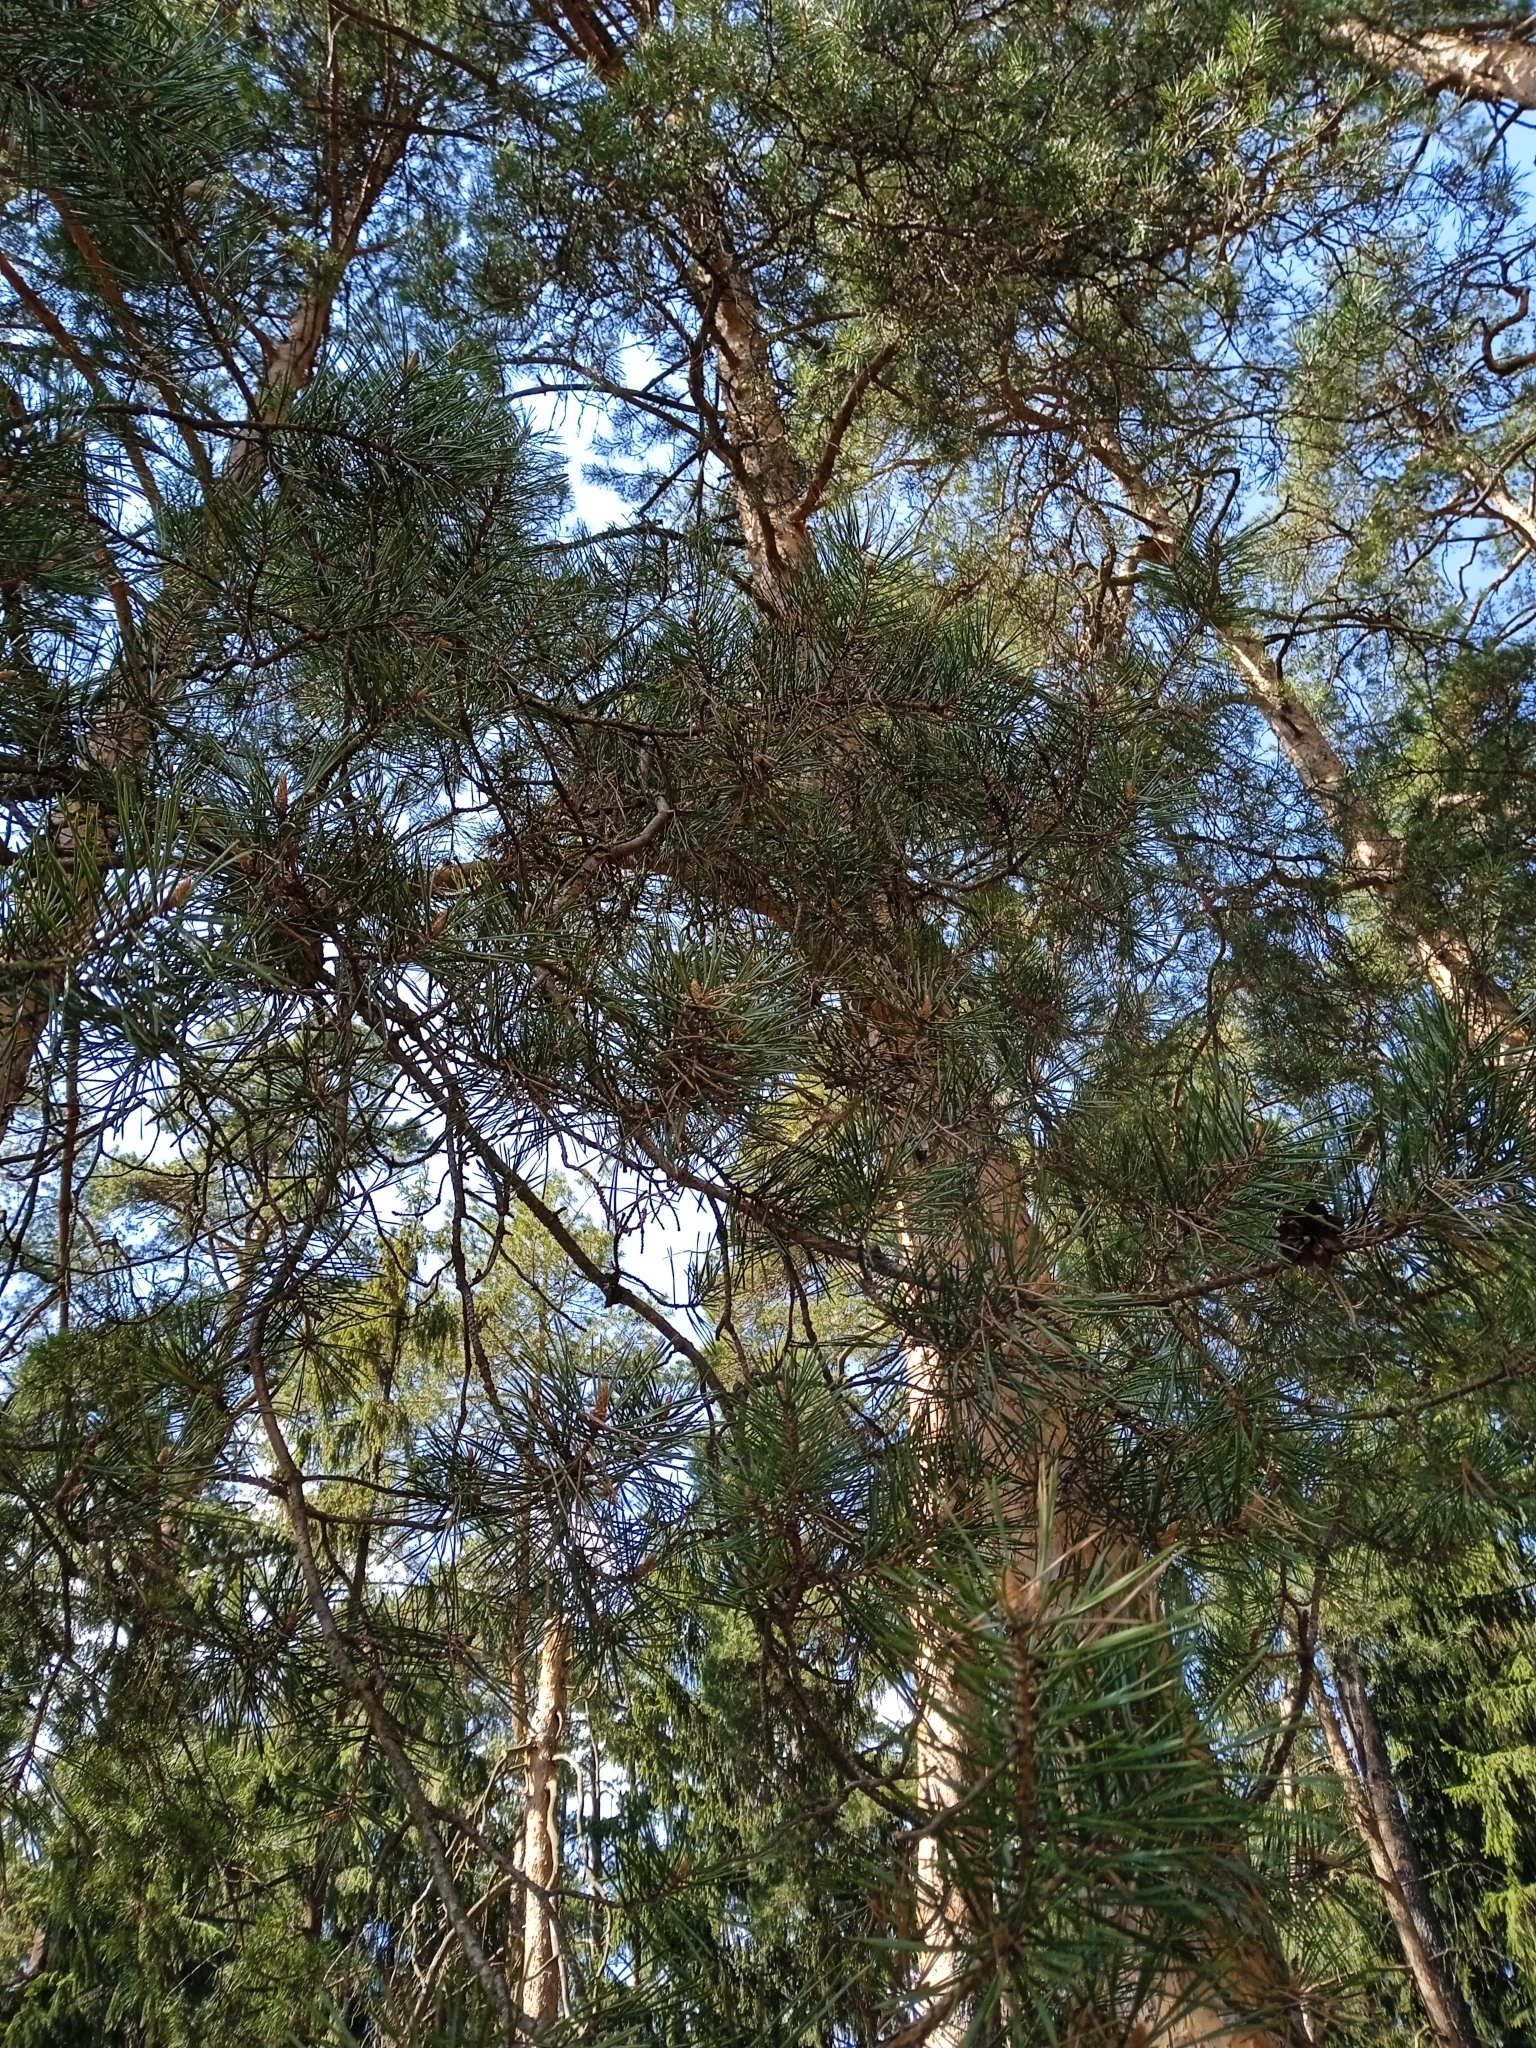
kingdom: Plantae
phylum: Tracheophyta
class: Pinopsida
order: Pinales
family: Pinaceae
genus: Pinus
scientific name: Pinus sylvestris
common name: Scots pine
